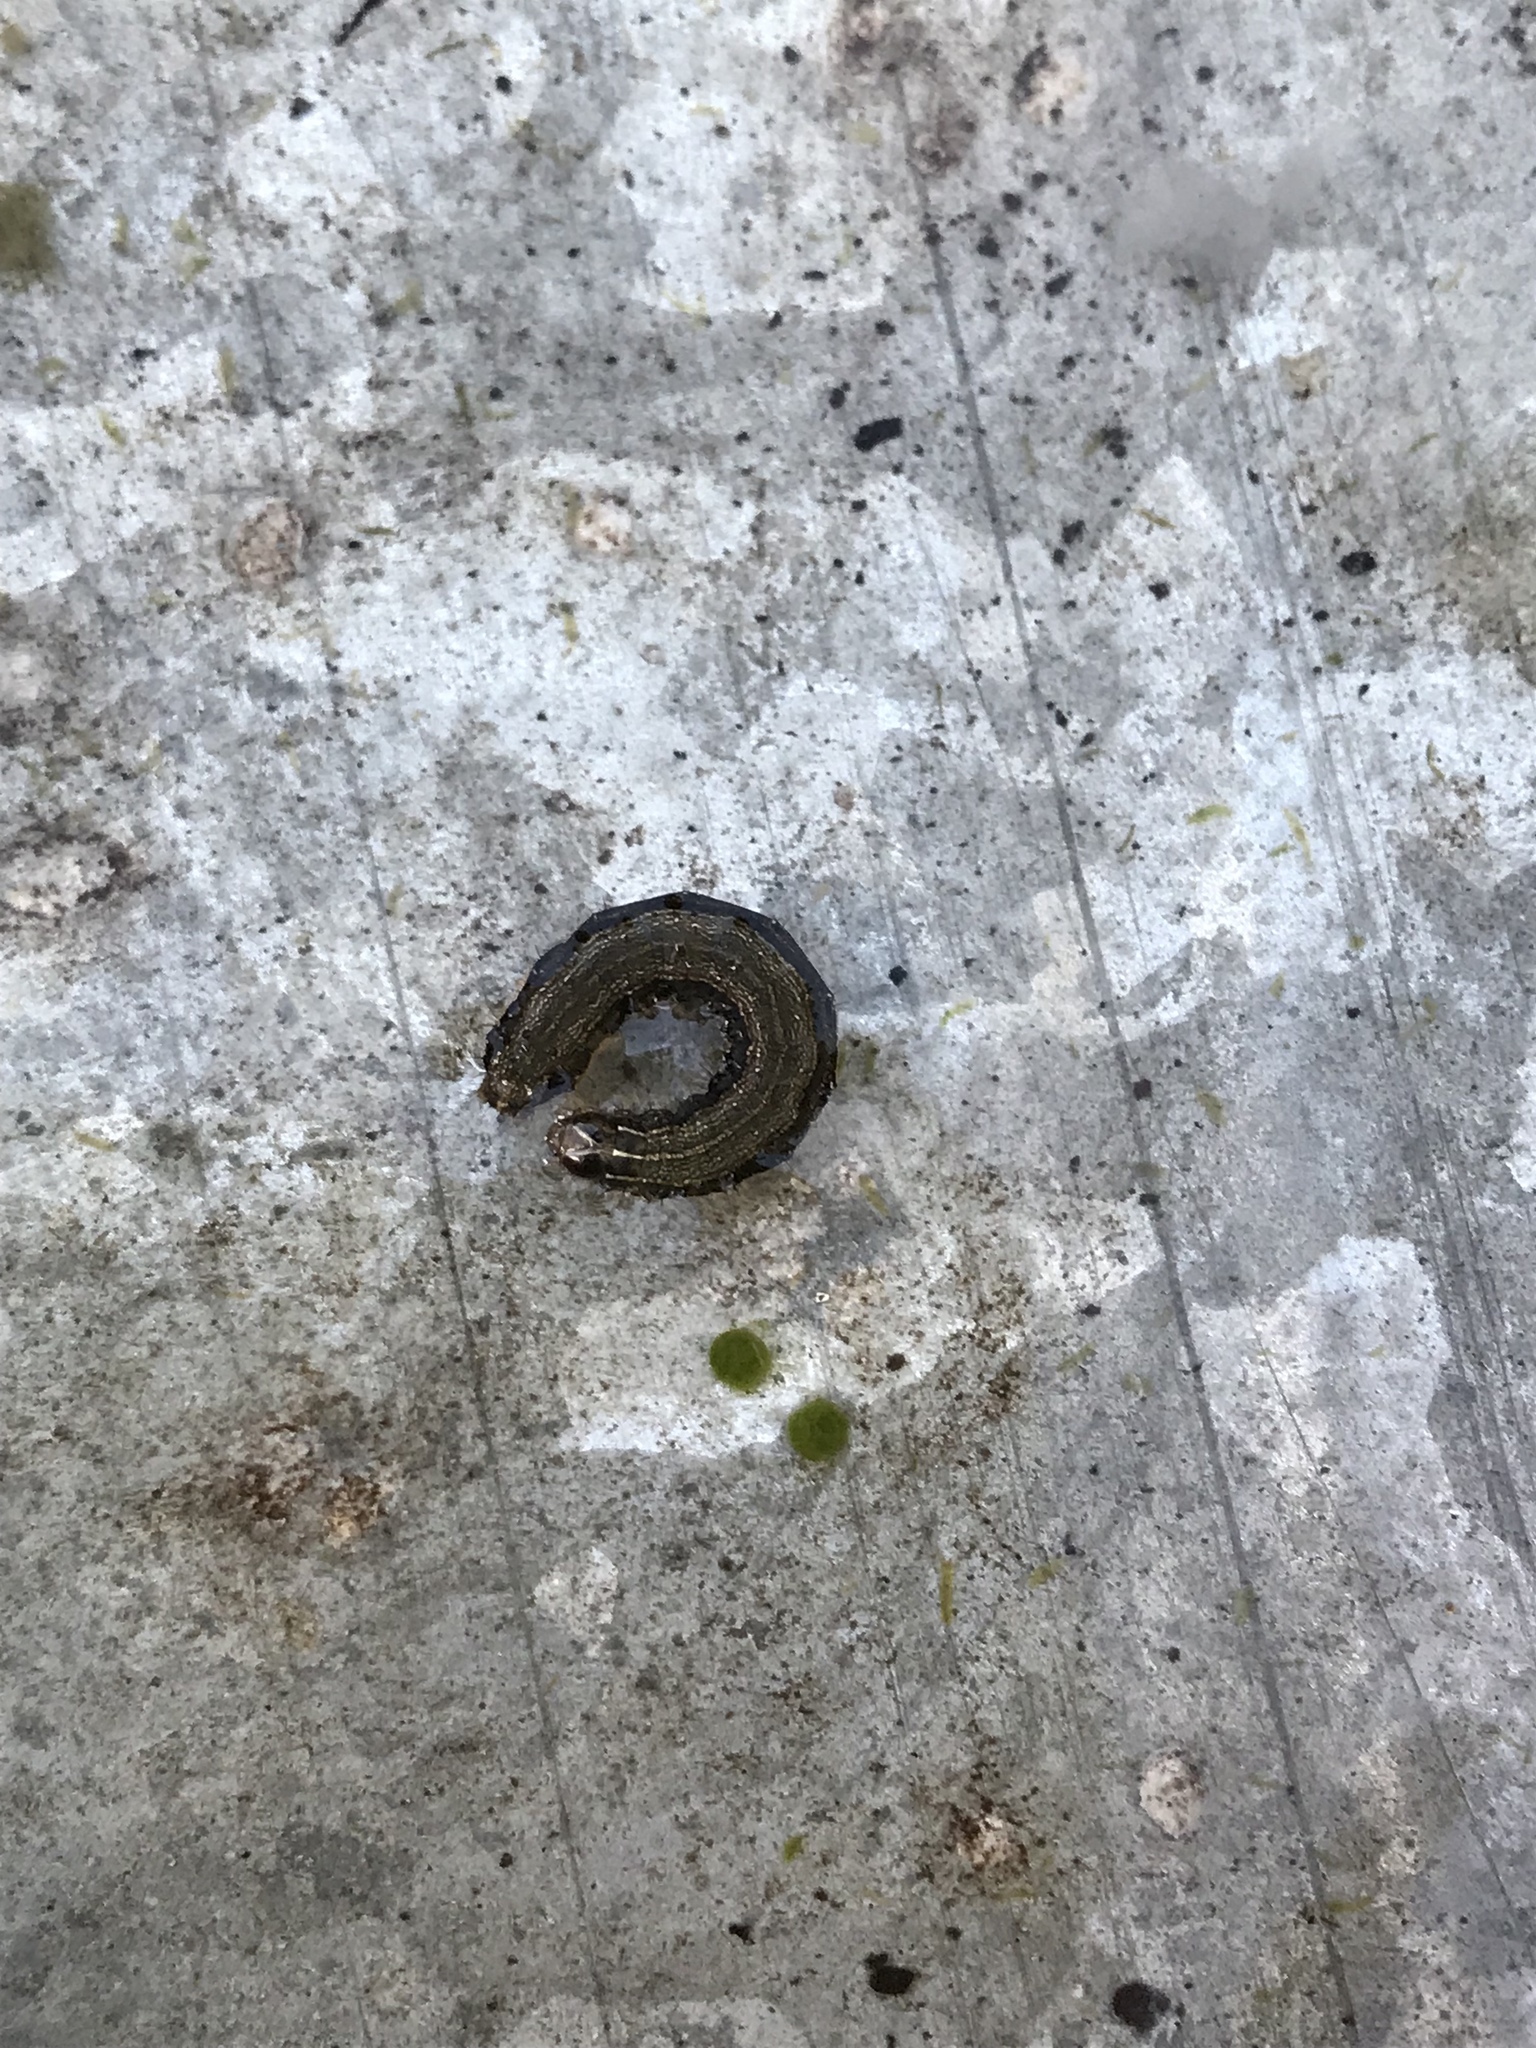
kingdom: Animalia
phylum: Arthropoda
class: Insecta
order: Lepidoptera
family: Noctuidae
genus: Spodoptera
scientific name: Spodoptera frugiperda
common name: Fall armyworm
